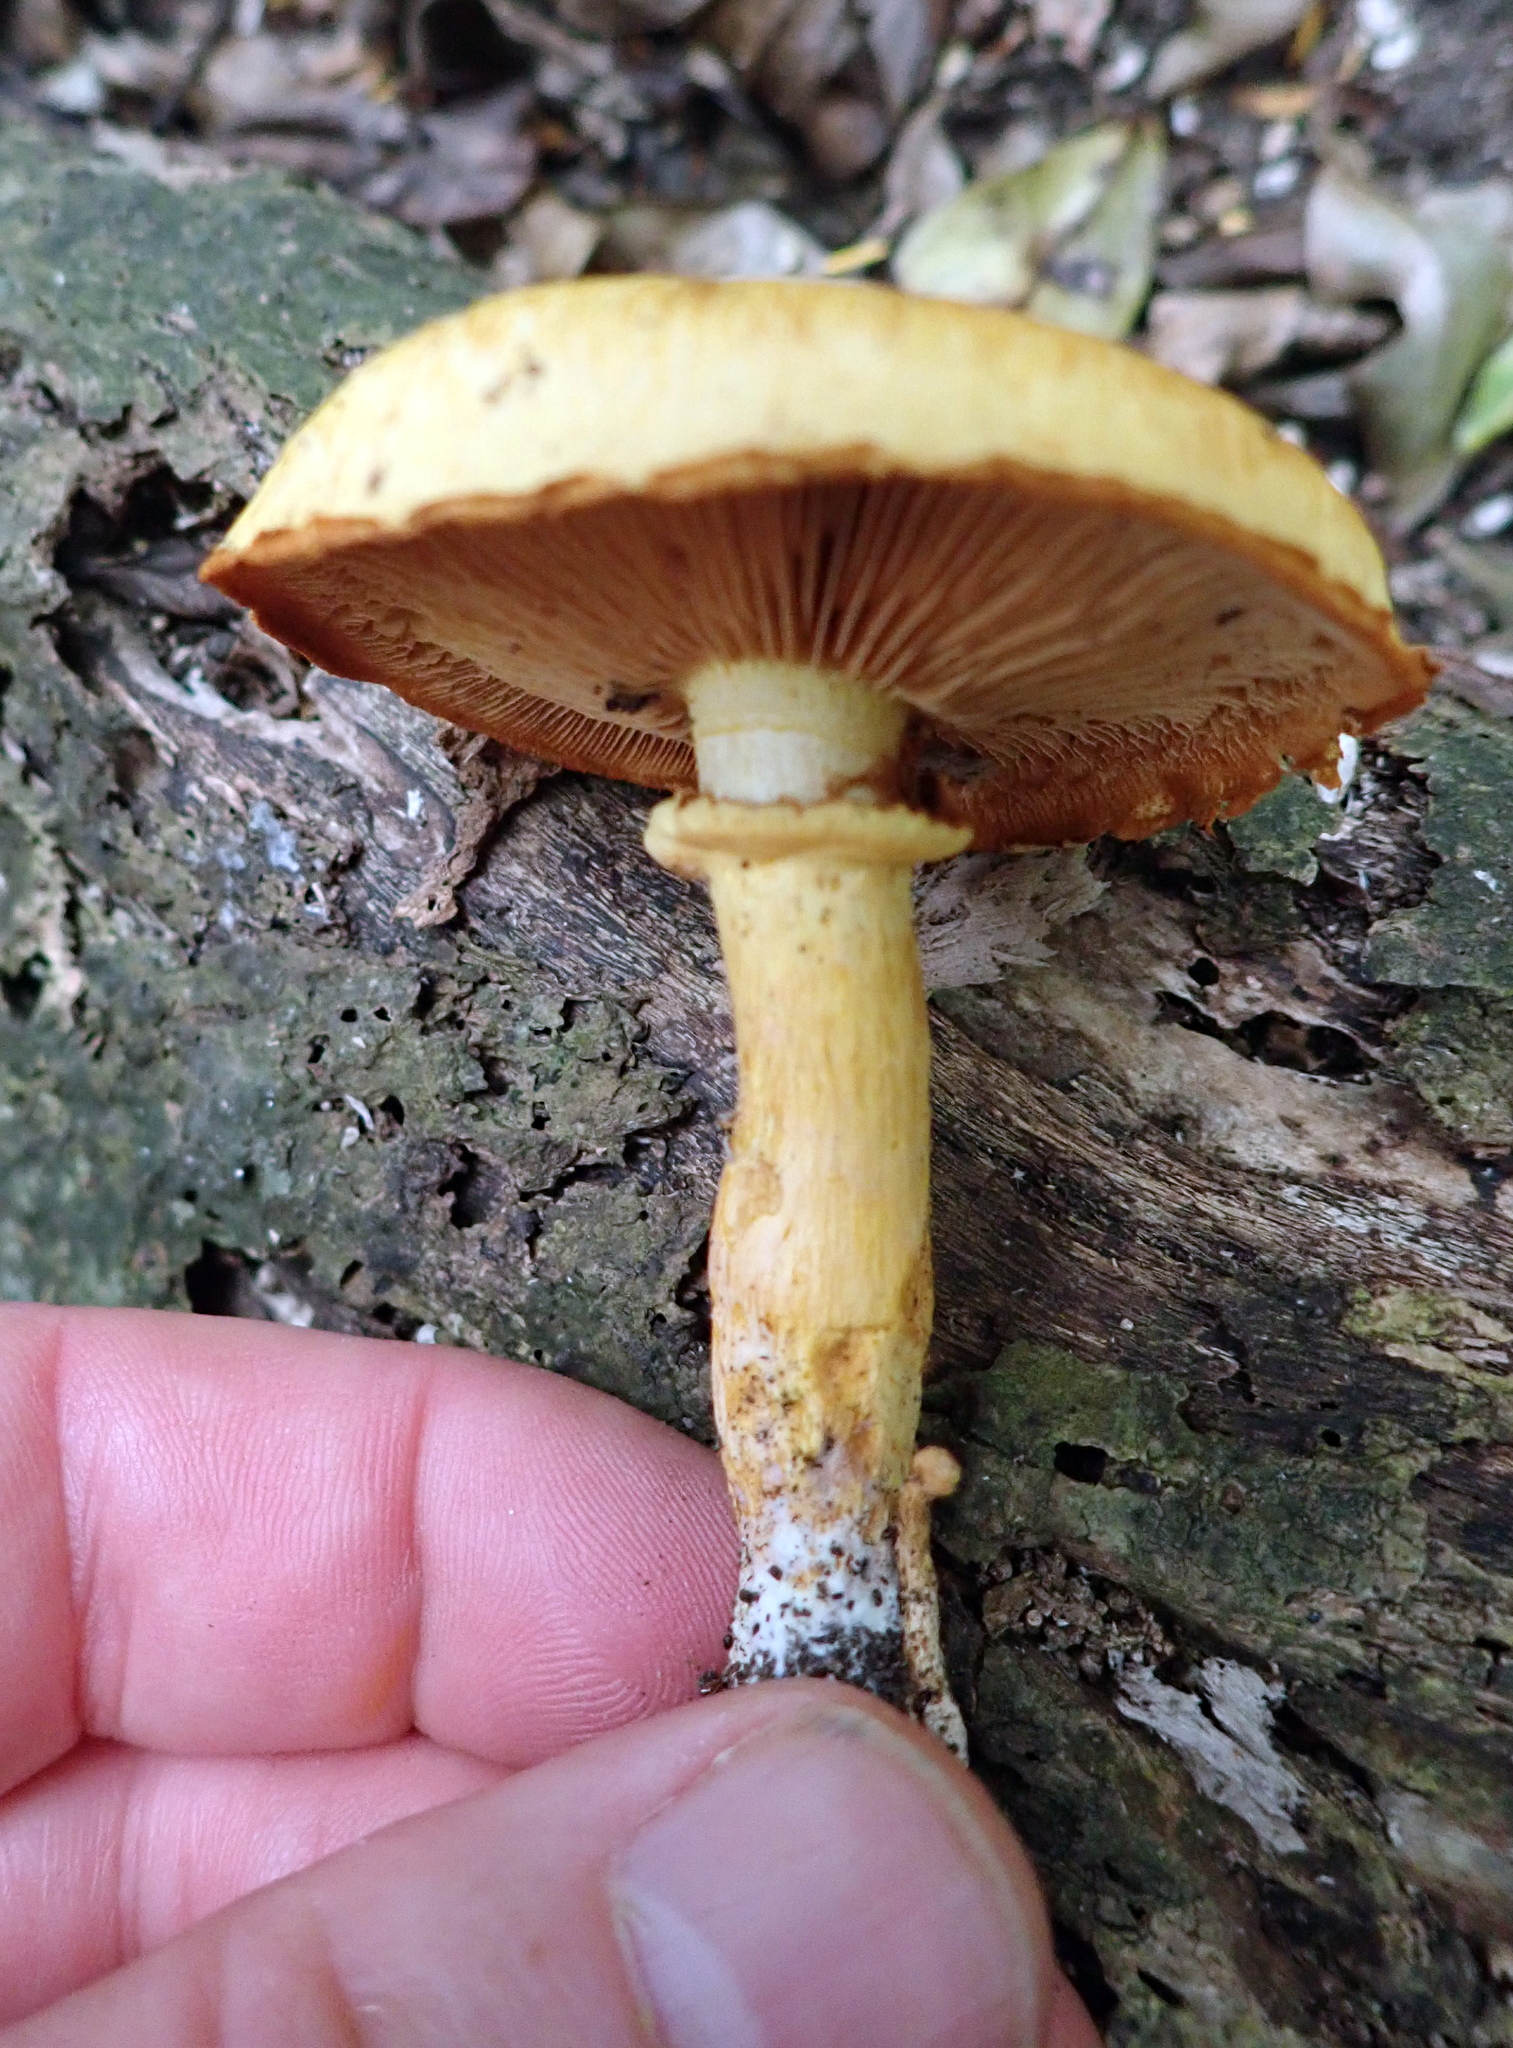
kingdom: Fungi
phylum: Basidiomycota
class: Agaricomycetes
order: Agaricales
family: Hymenogastraceae
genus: Gymnopilus
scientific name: Gymnopilus junonius
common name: Spectacular rustgill
